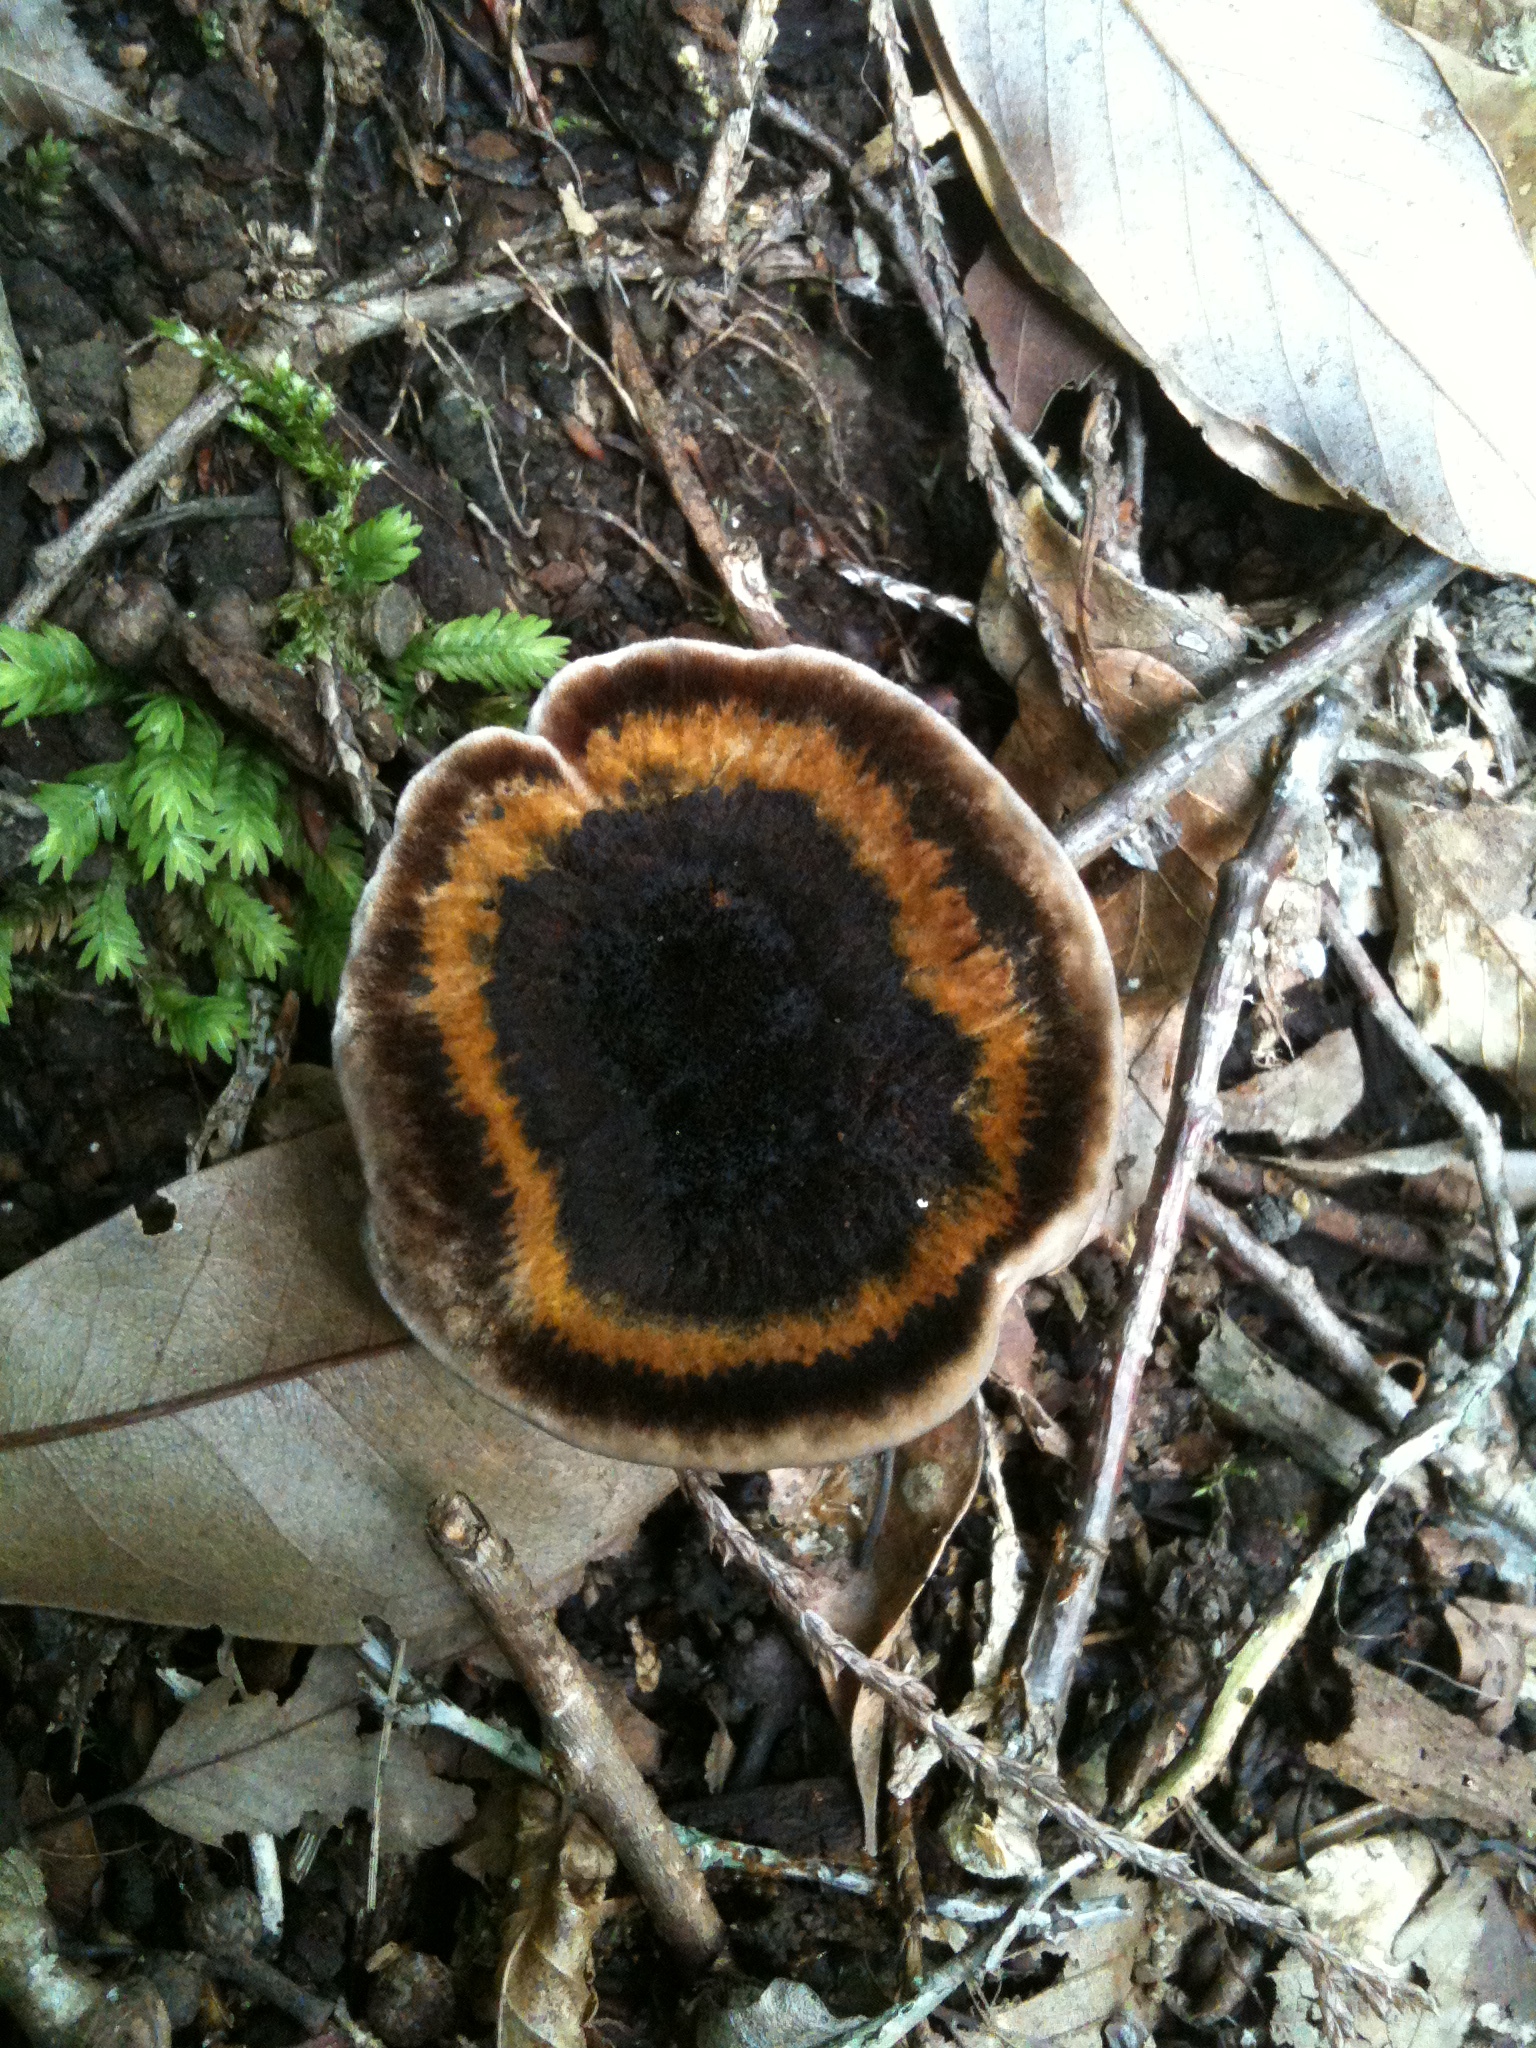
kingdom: Fungi
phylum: Basidiomycota
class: Agaricomycetes
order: Hymenochaetales
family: Hymenochaetaceae
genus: Coltricia
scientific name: Coltricia montagnei
